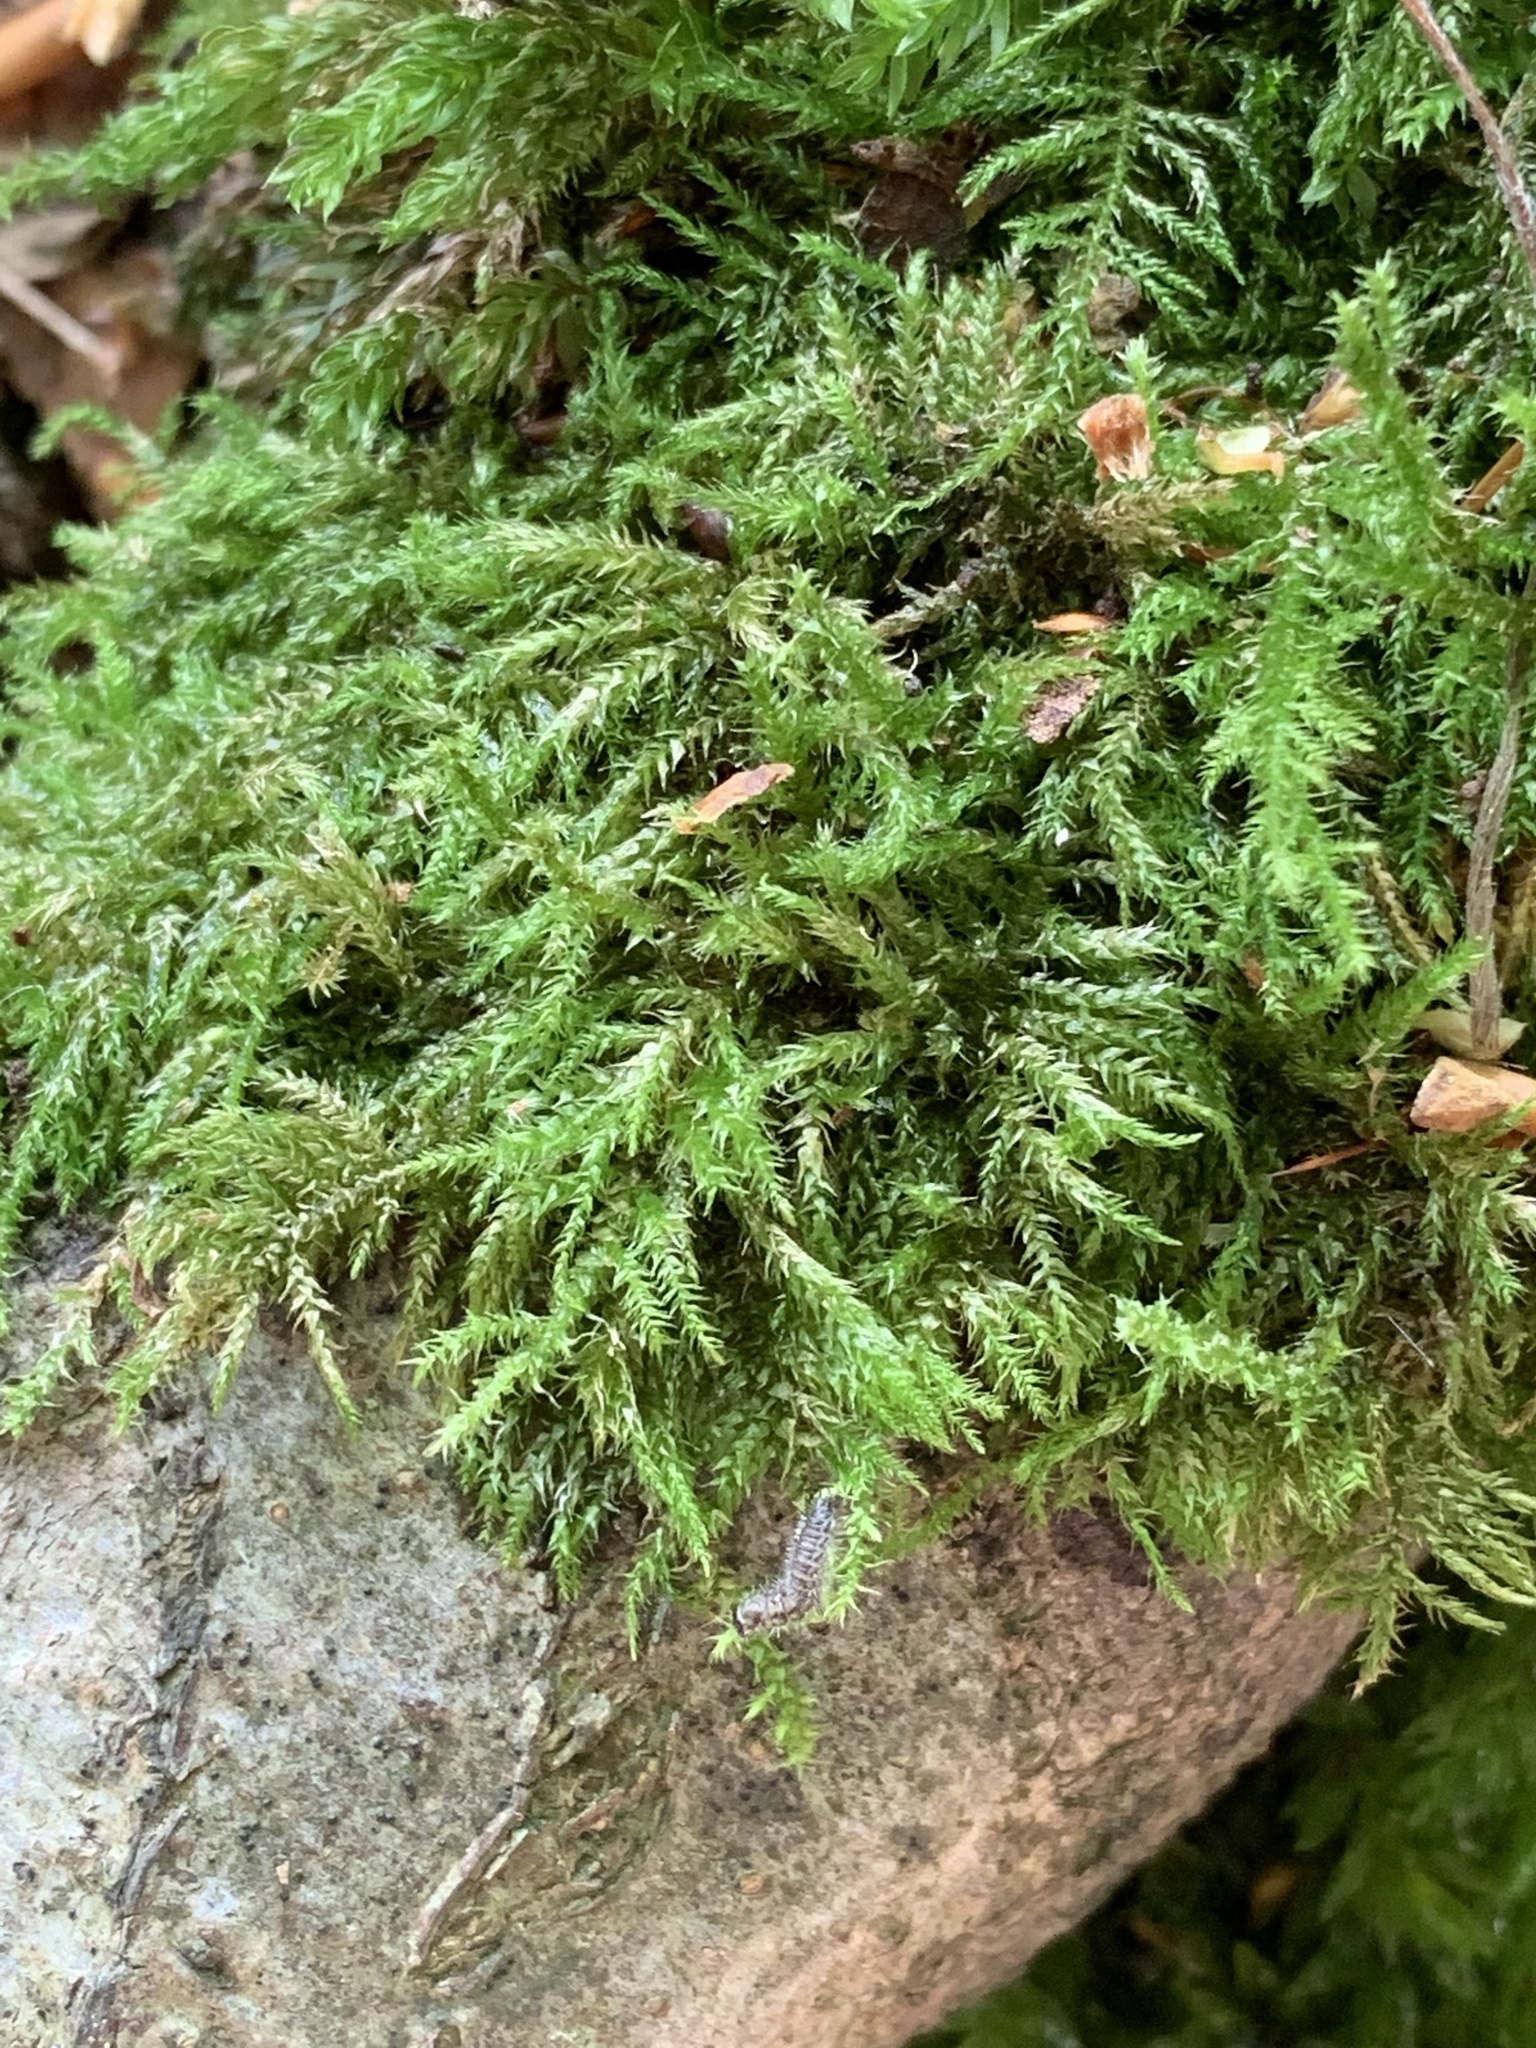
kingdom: Plantae
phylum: Bryophyta
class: Bryopsida
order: Hypnales
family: Brachytheciaceae
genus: Kindbergia
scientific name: Kindbergia praelonga
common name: Slender beaked moss
